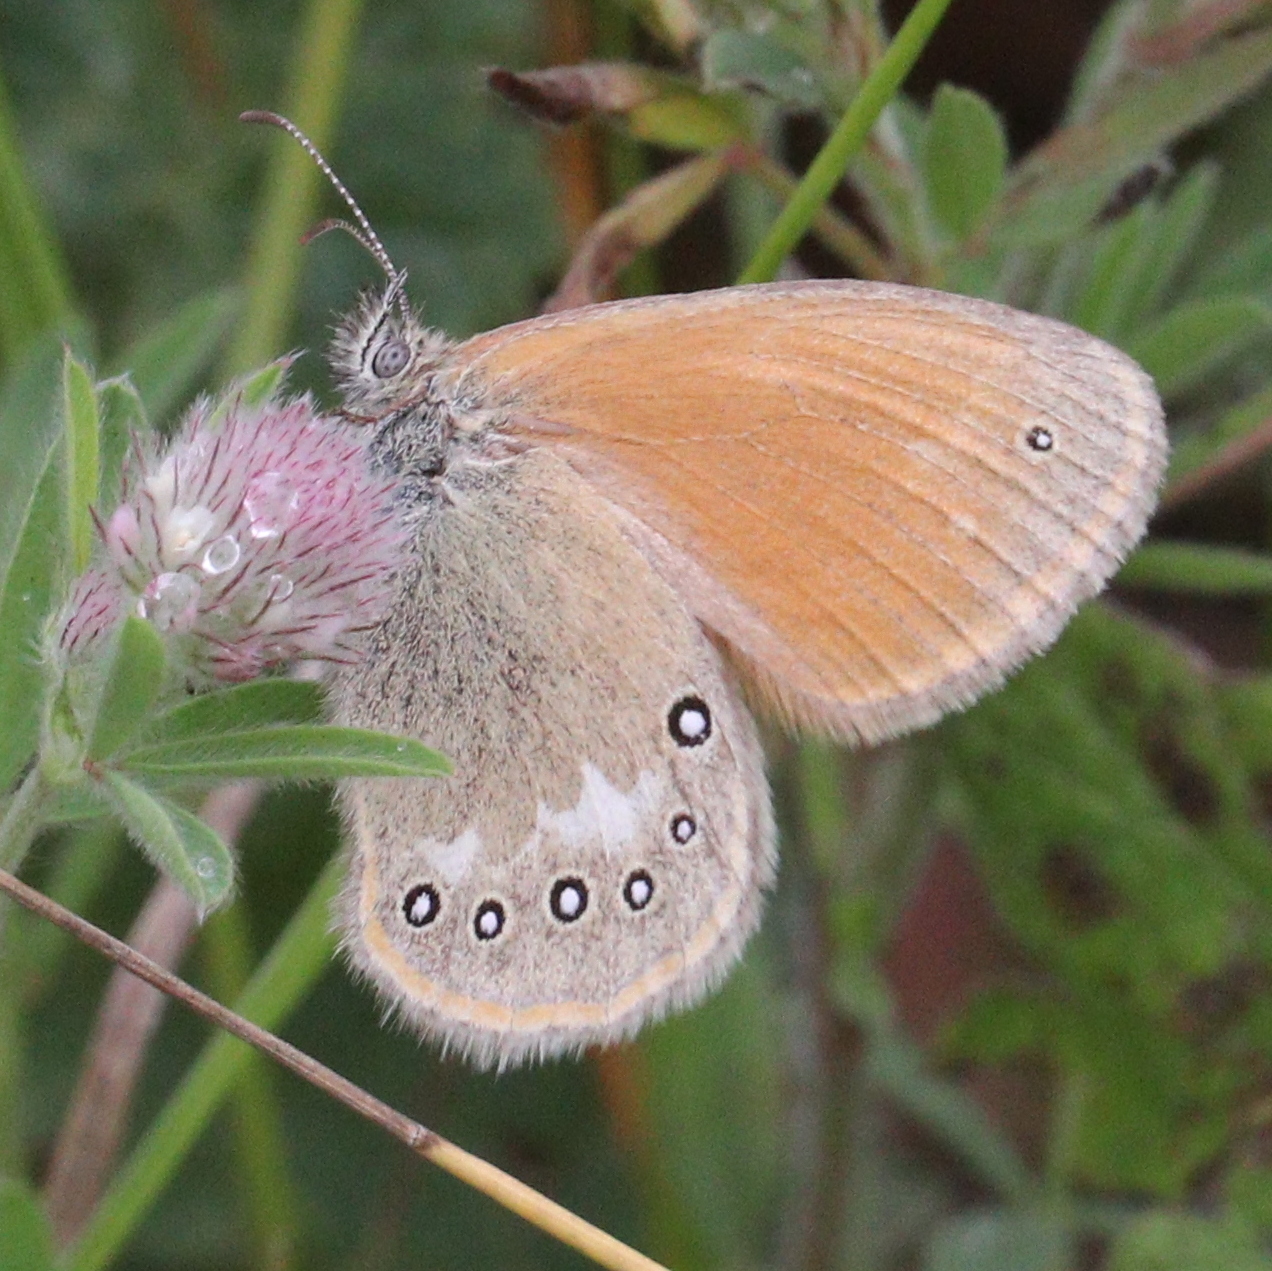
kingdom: Animalia
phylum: Arthropoda
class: Insecta
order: Lepidoptera
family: Nymphalidae
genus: Coenonympha
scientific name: Coenonympha iphis
